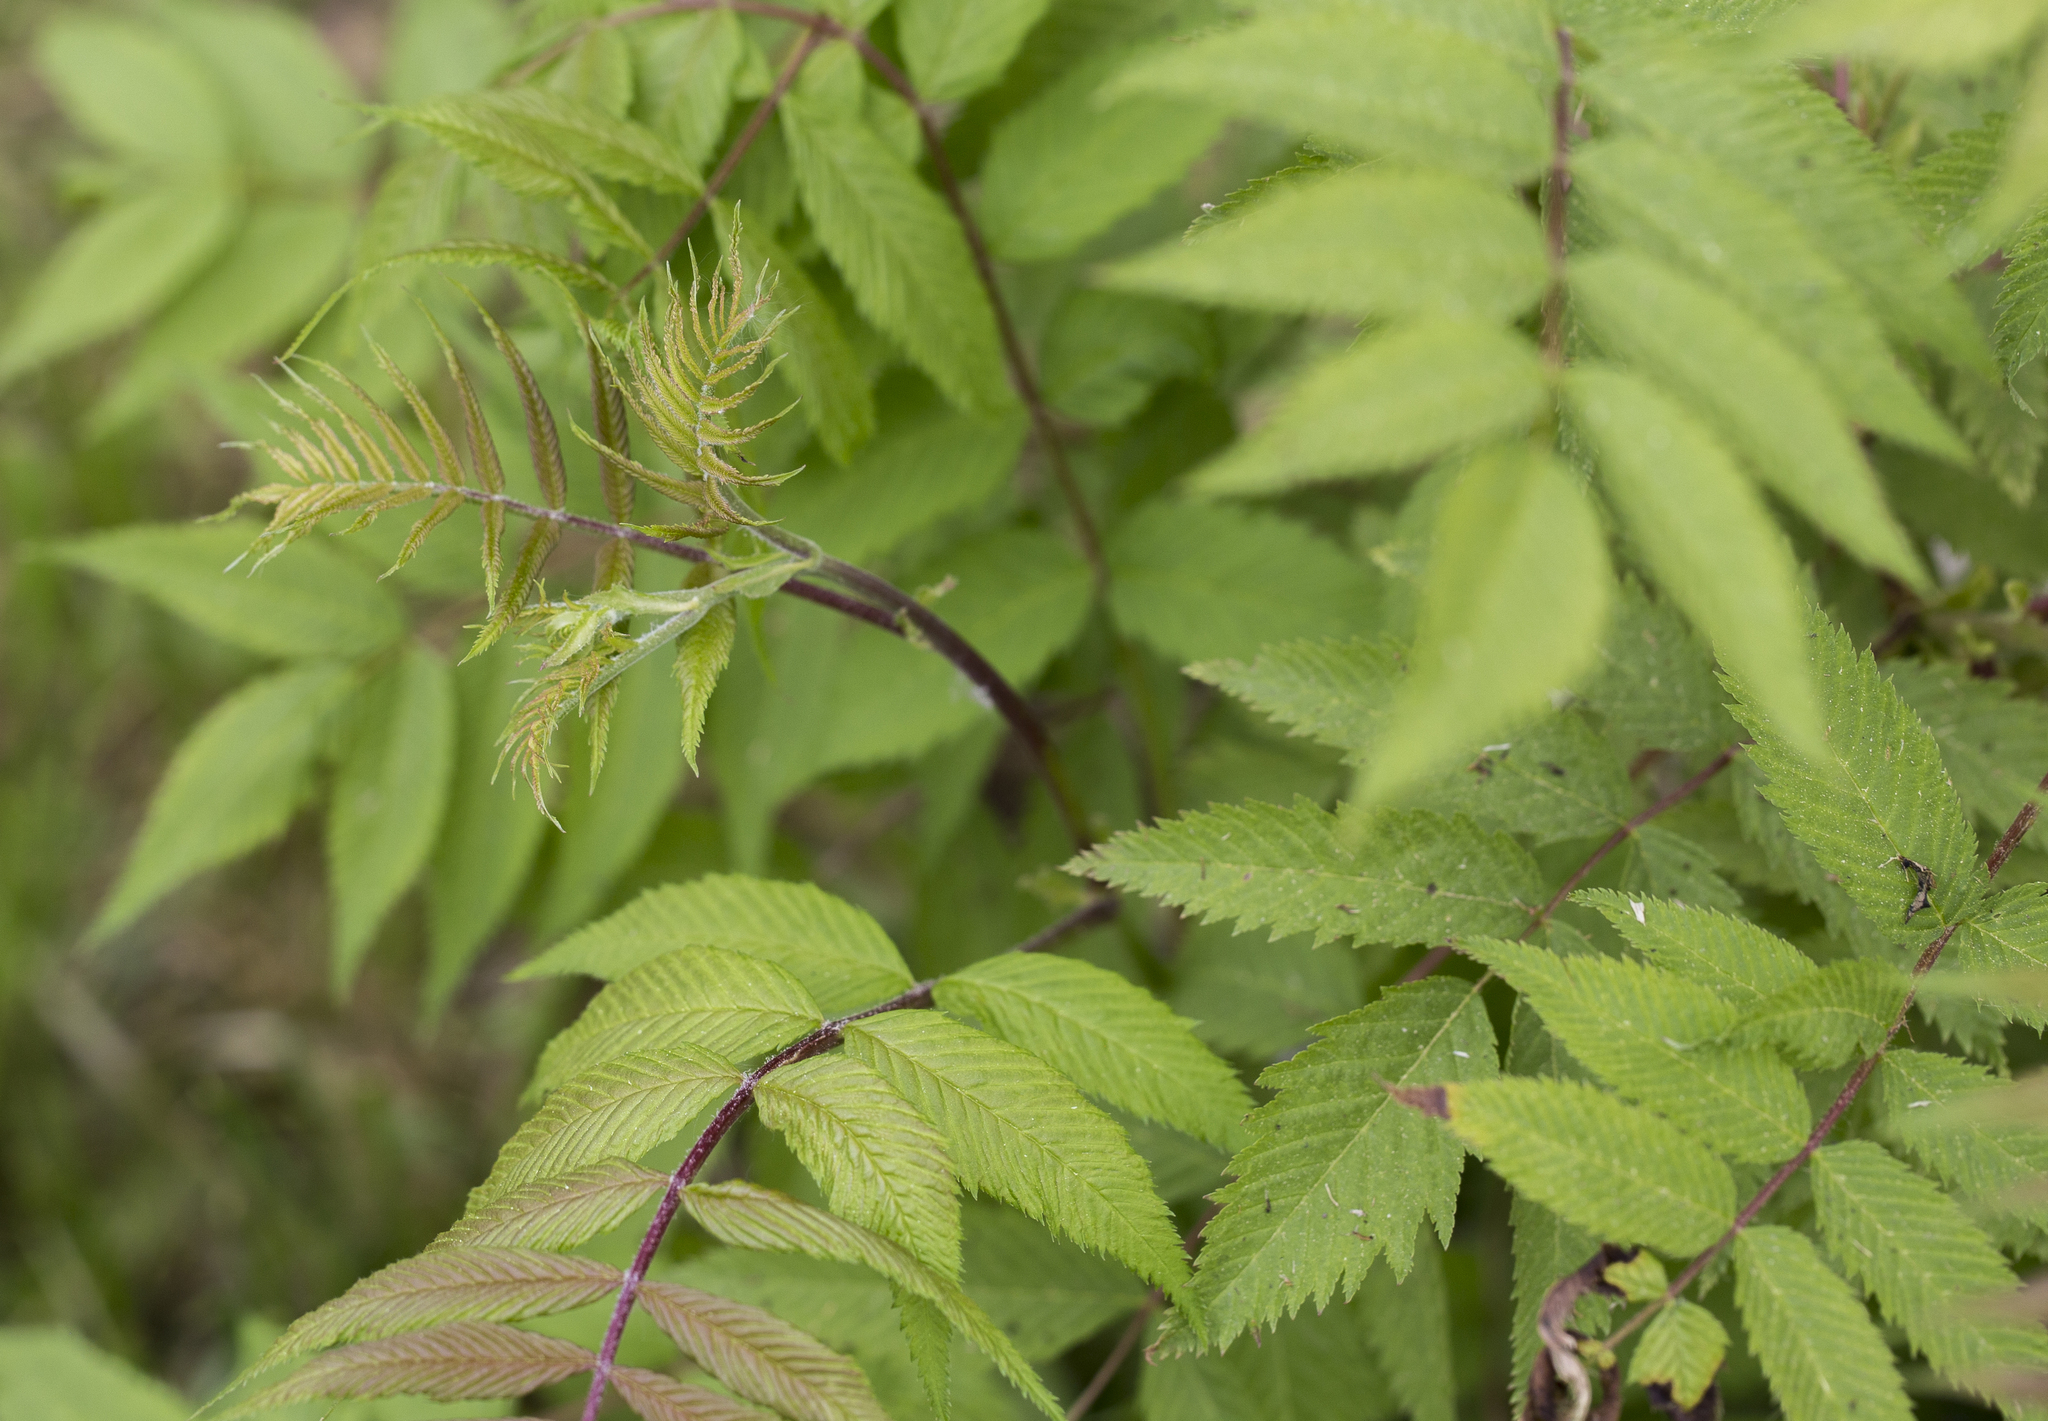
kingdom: Plantae
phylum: Tracheophyta
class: Magnoliopsida
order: Rosales
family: Rosaceae
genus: Sorbaria
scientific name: Sorbaria sorbifolia
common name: False spiraea
